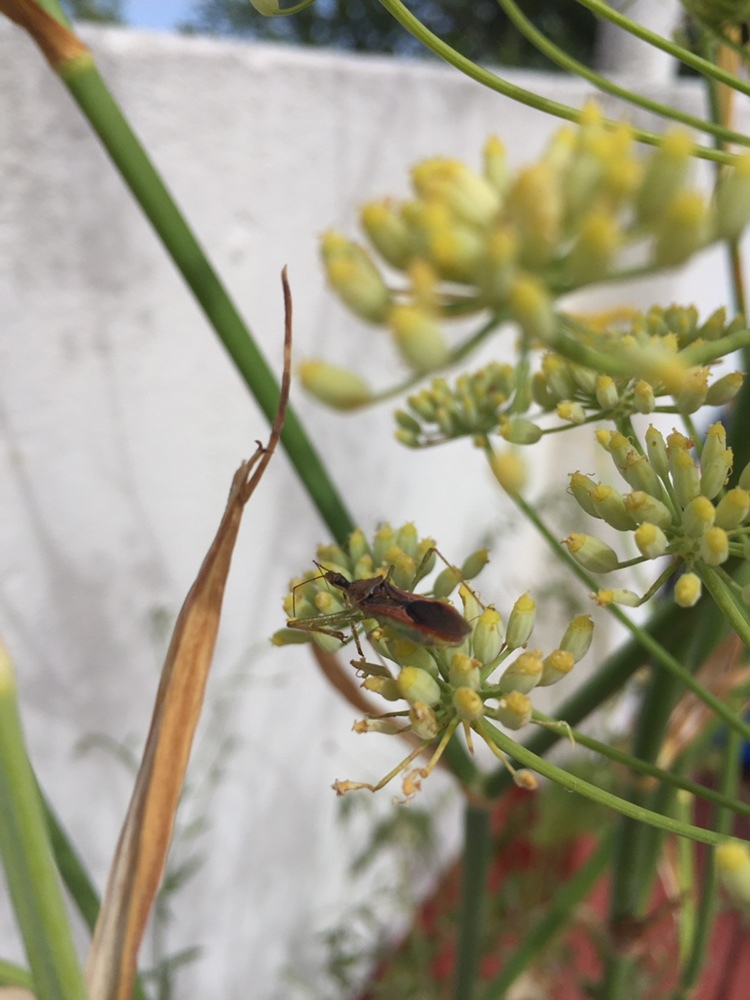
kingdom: Animalia
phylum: Arthropoda
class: Insecta
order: Hemiptera
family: Reduviidae
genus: Zelus
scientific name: Zelus renardii
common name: Assassin bug
